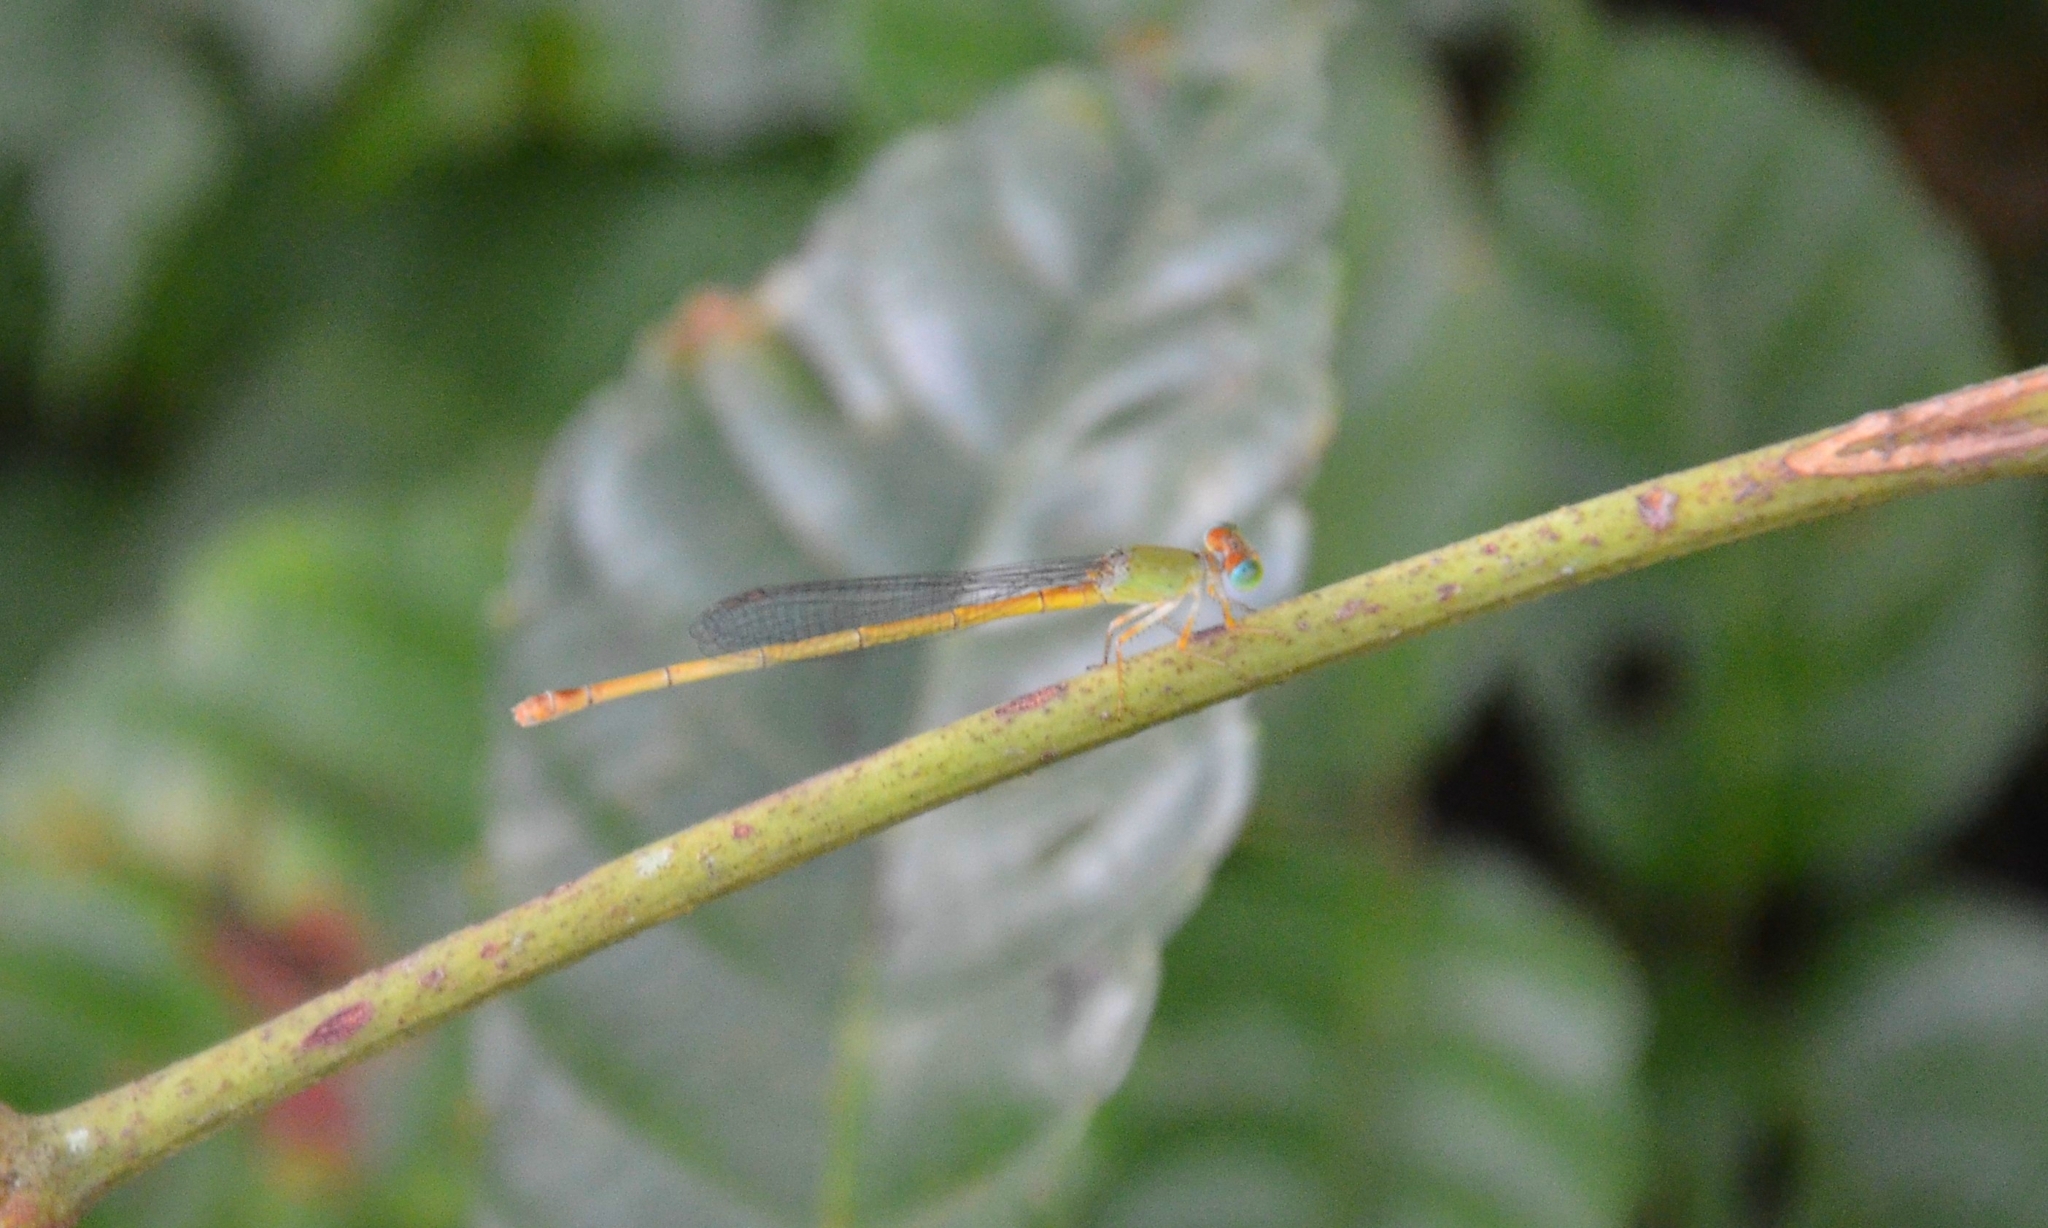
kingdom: Animalia
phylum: Arthropoda
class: Insecta
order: Odonata
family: Coenagrionidae
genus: Ceriagrion
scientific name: Ceriagrion coromandelianum
